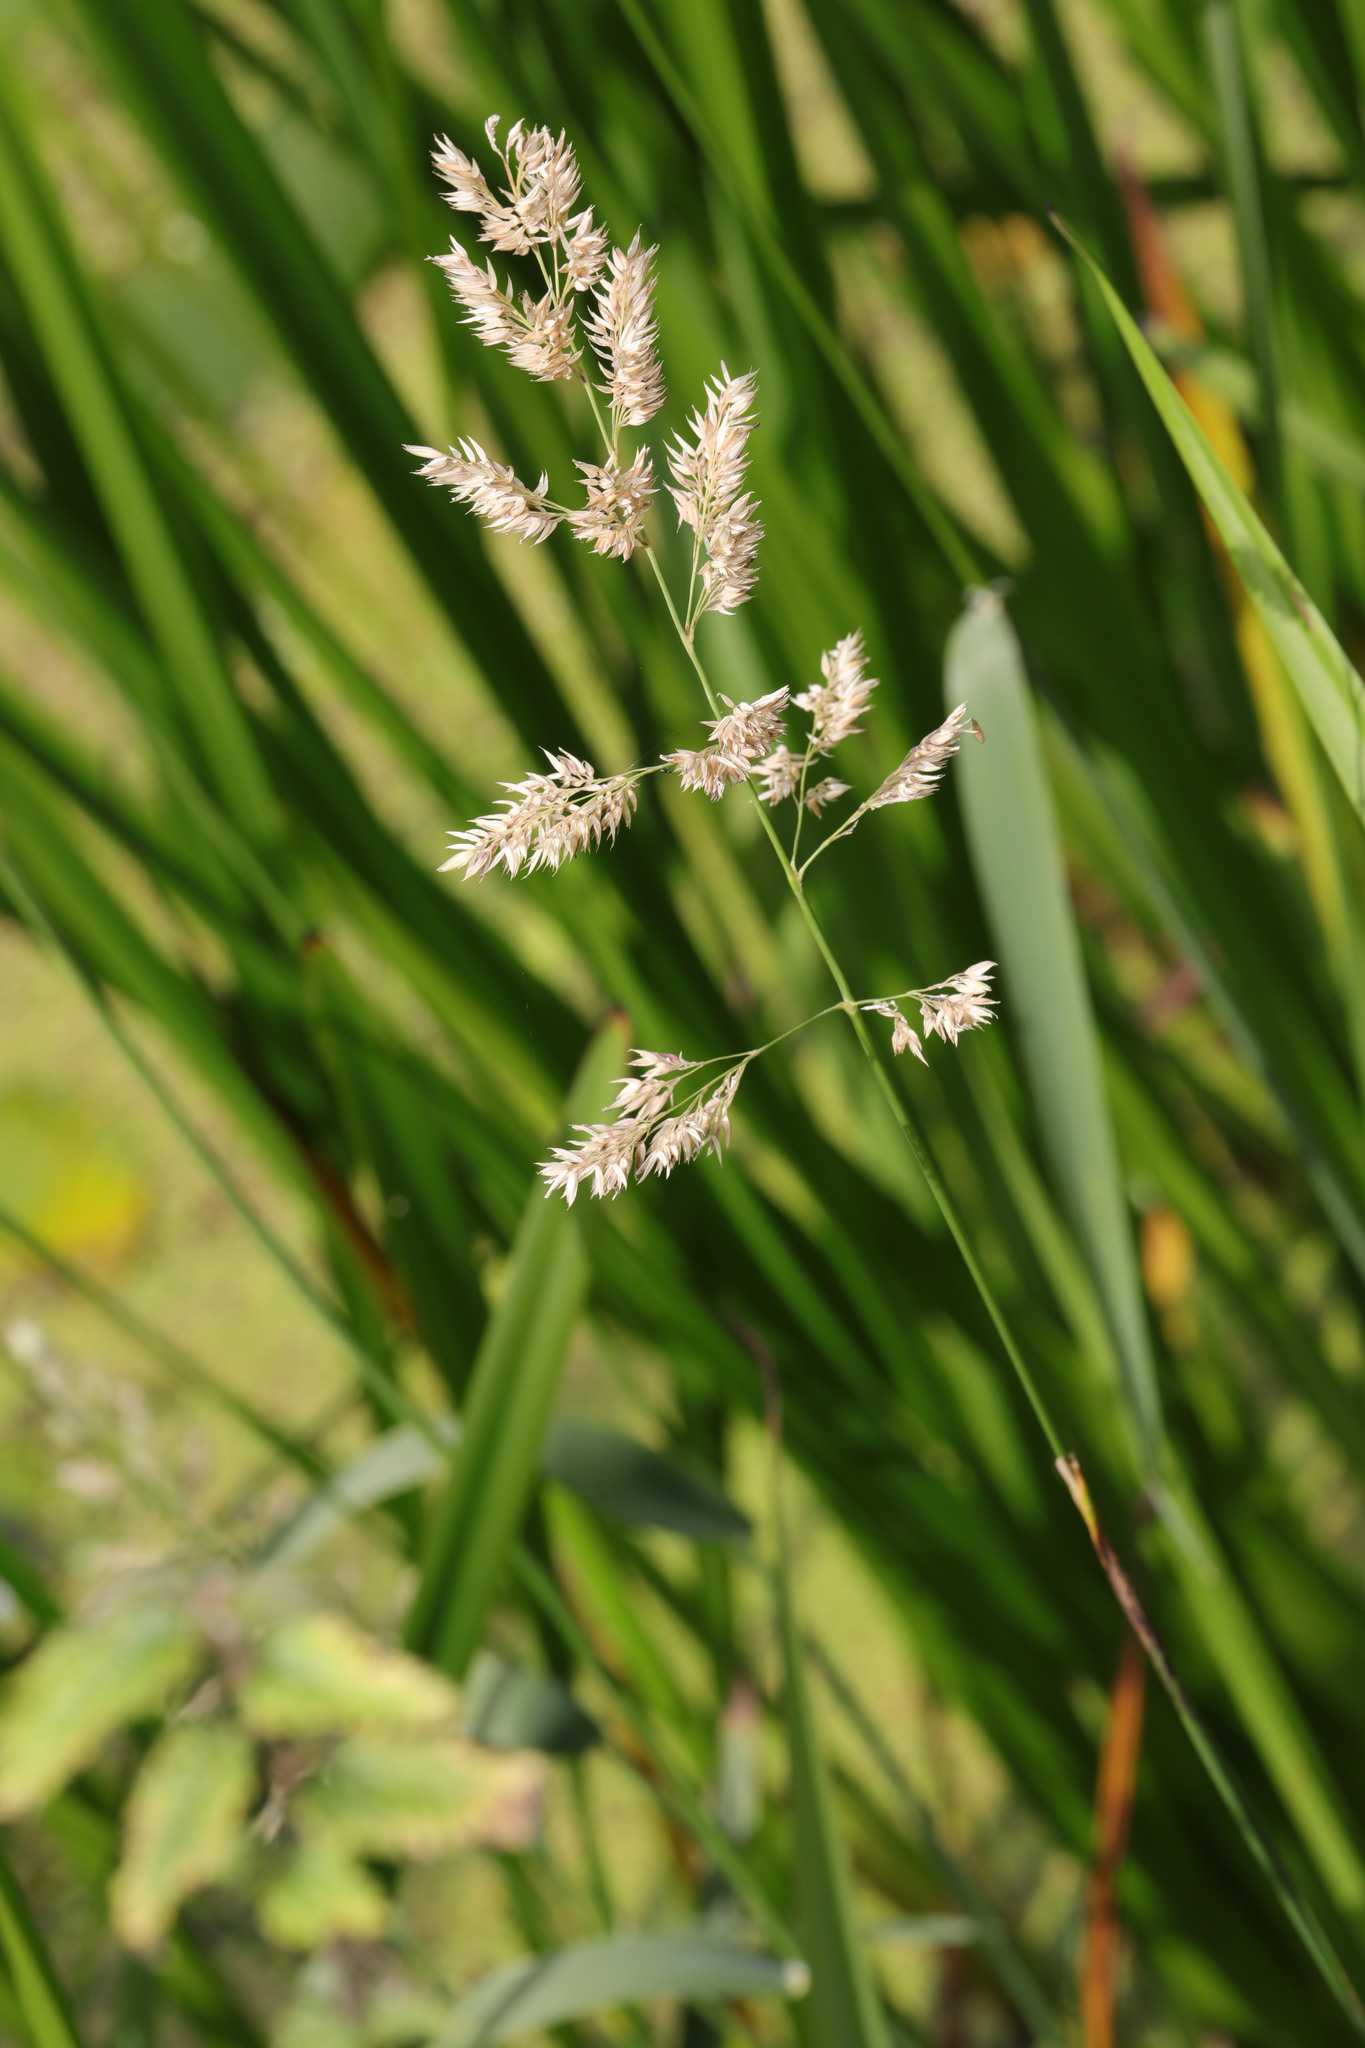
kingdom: Plantae
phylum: Tracheophyta
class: Liliopsida
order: Poales
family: Poaceae
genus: Phalaris
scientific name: Phalaris arundinacea
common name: Reed canary-grass
